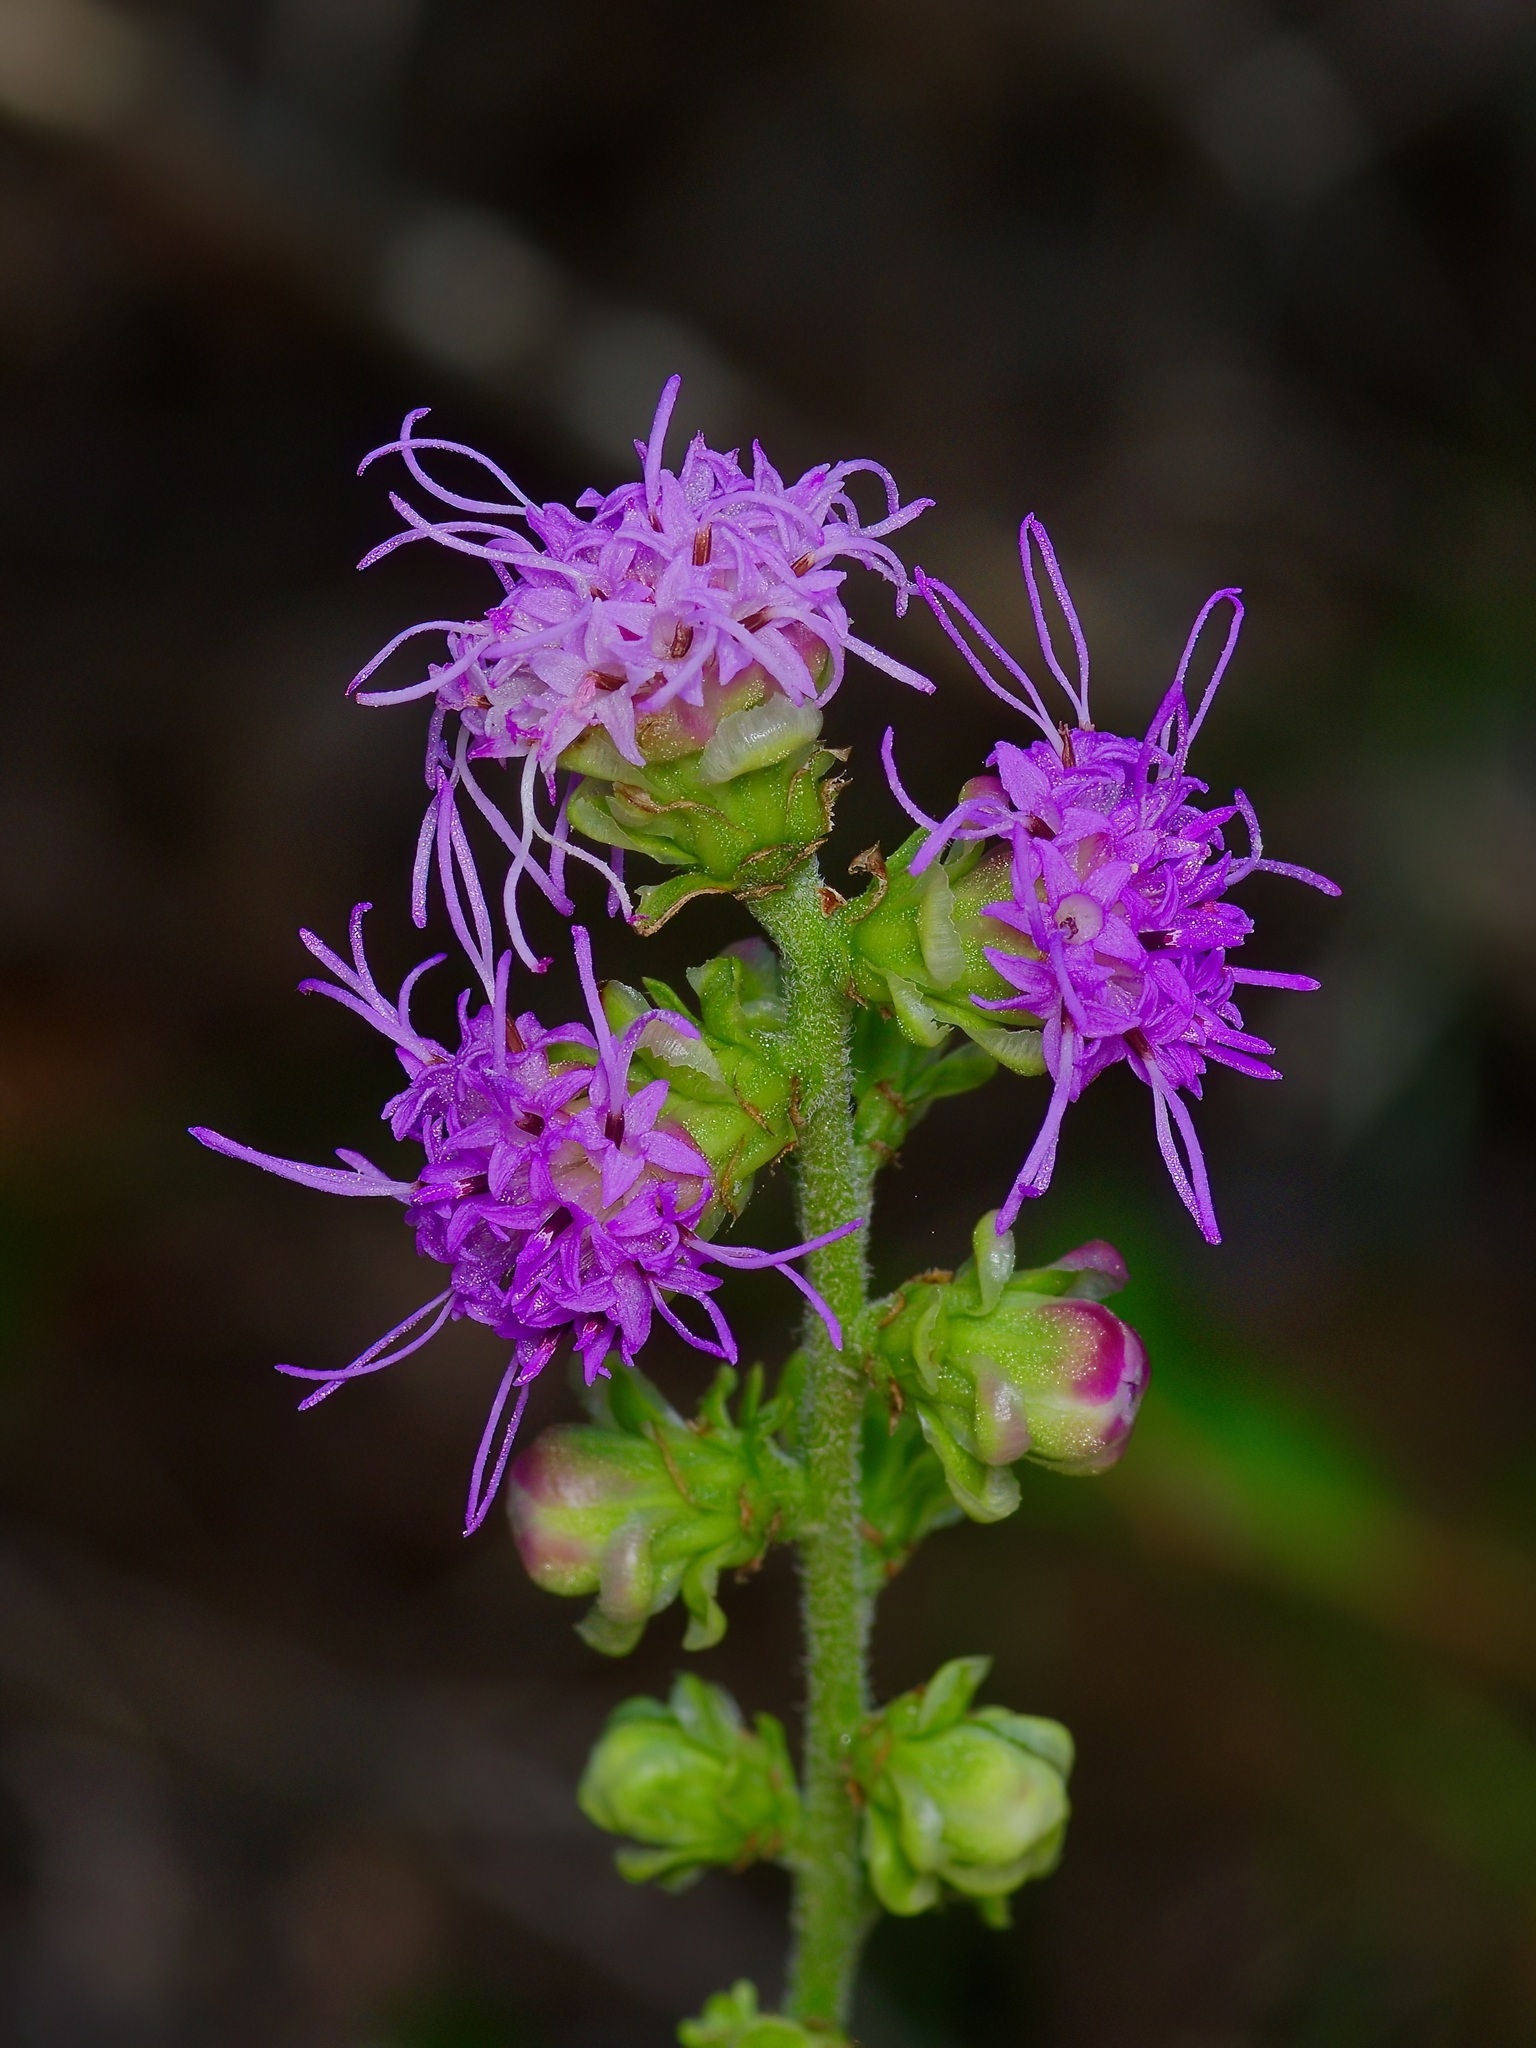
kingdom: Plantae
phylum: Tracheophyta
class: Magnoliopsida
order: Asterales
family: Asteraceae
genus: Liatris
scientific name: Liatris aspera
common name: Lacerate blazing-star
